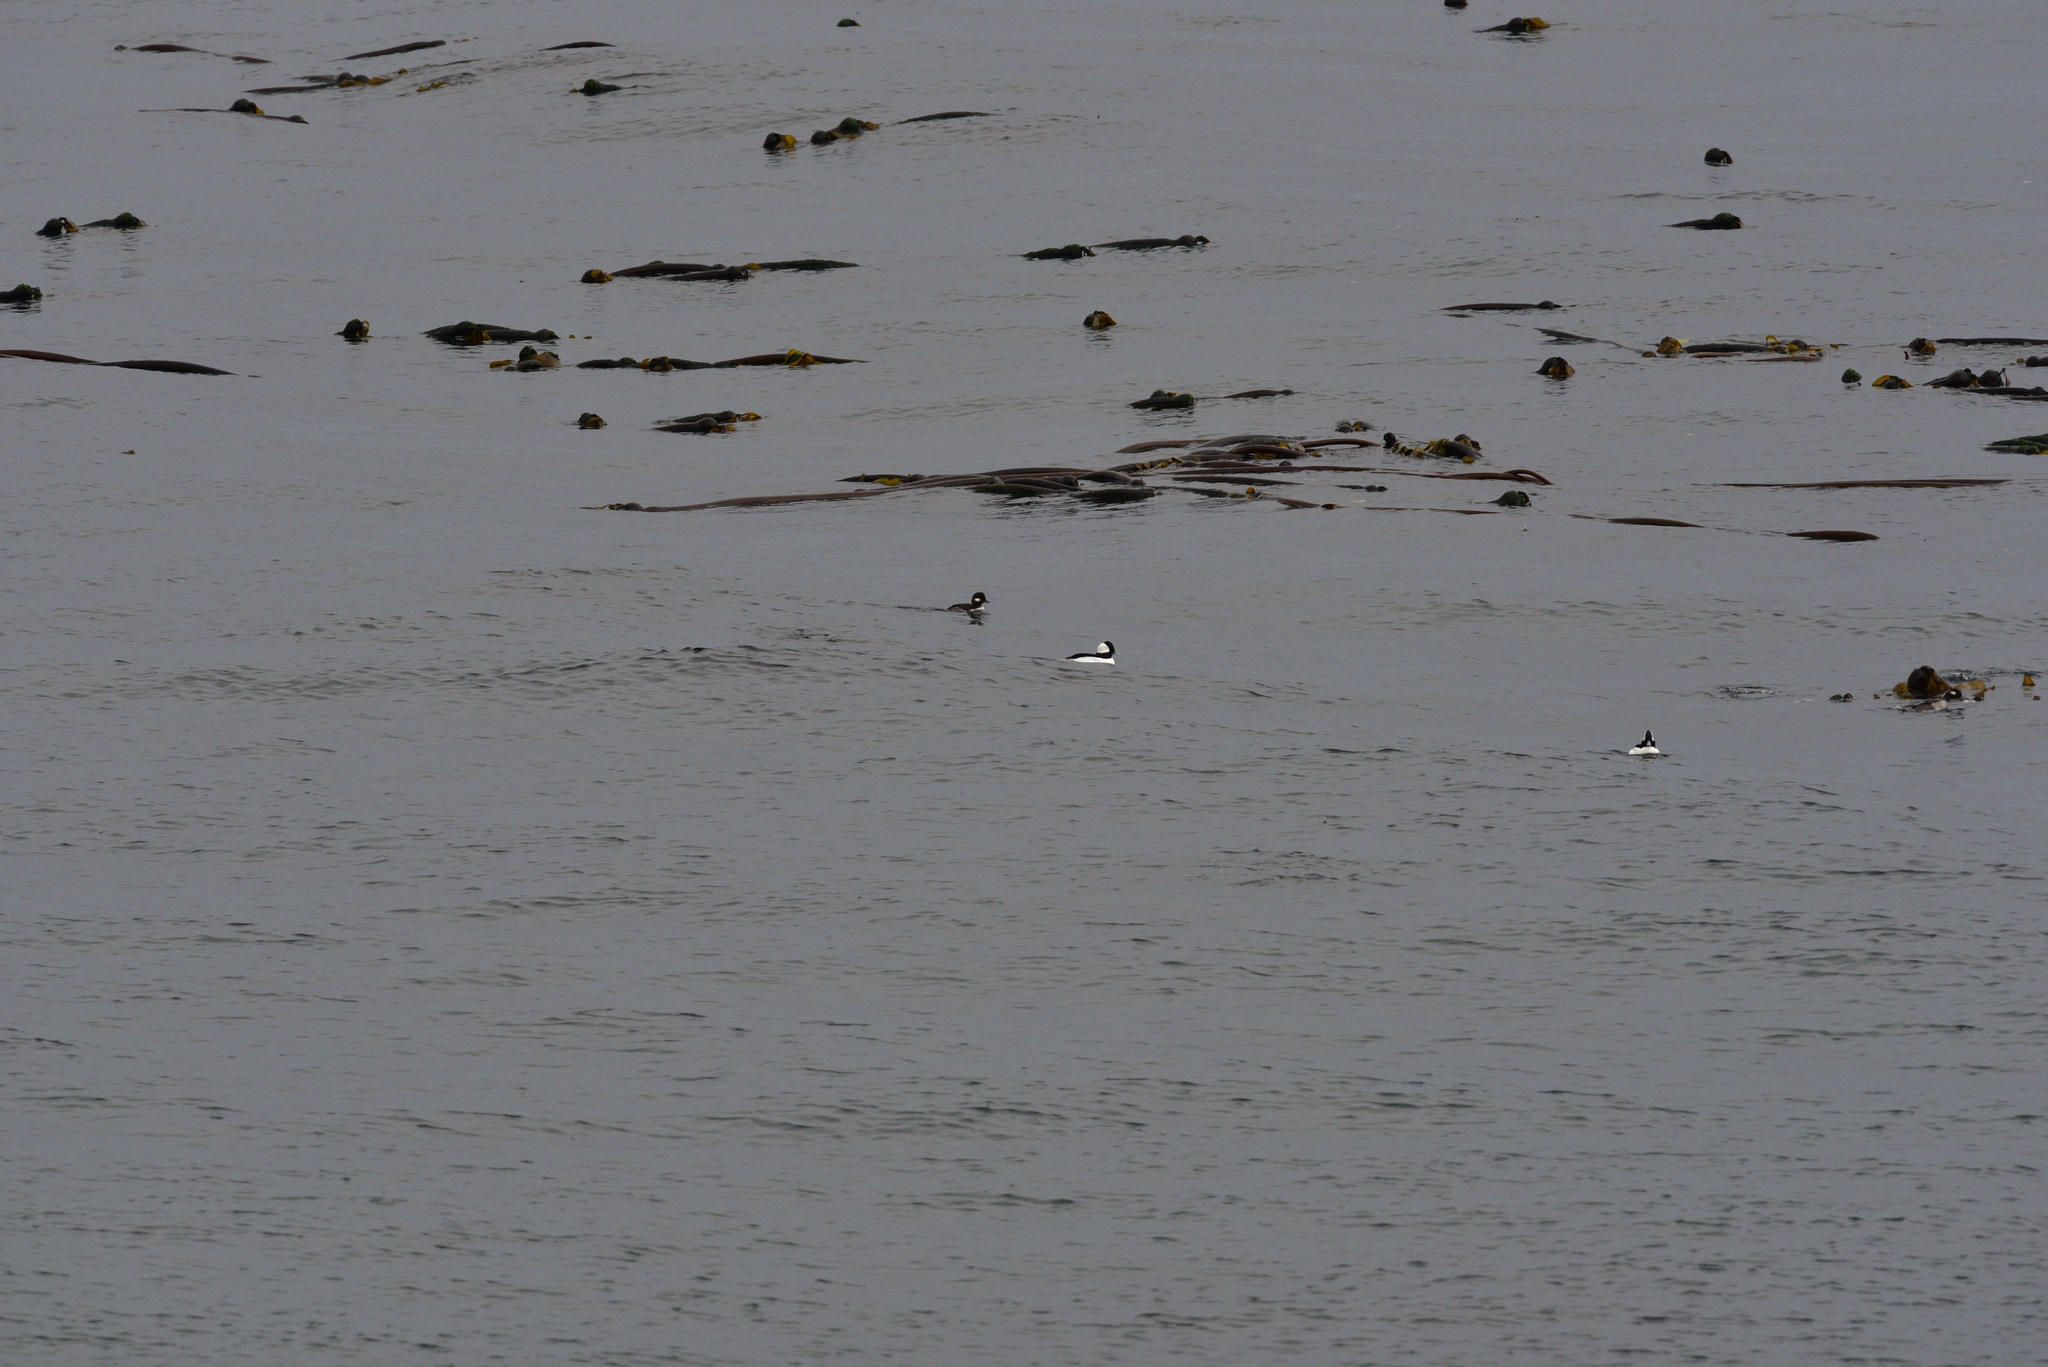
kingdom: Animalia
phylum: Chordata
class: Aves
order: Anseriformes
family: Anatidae
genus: Bucephala
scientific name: Bucephala albeola
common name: Bufflehead
